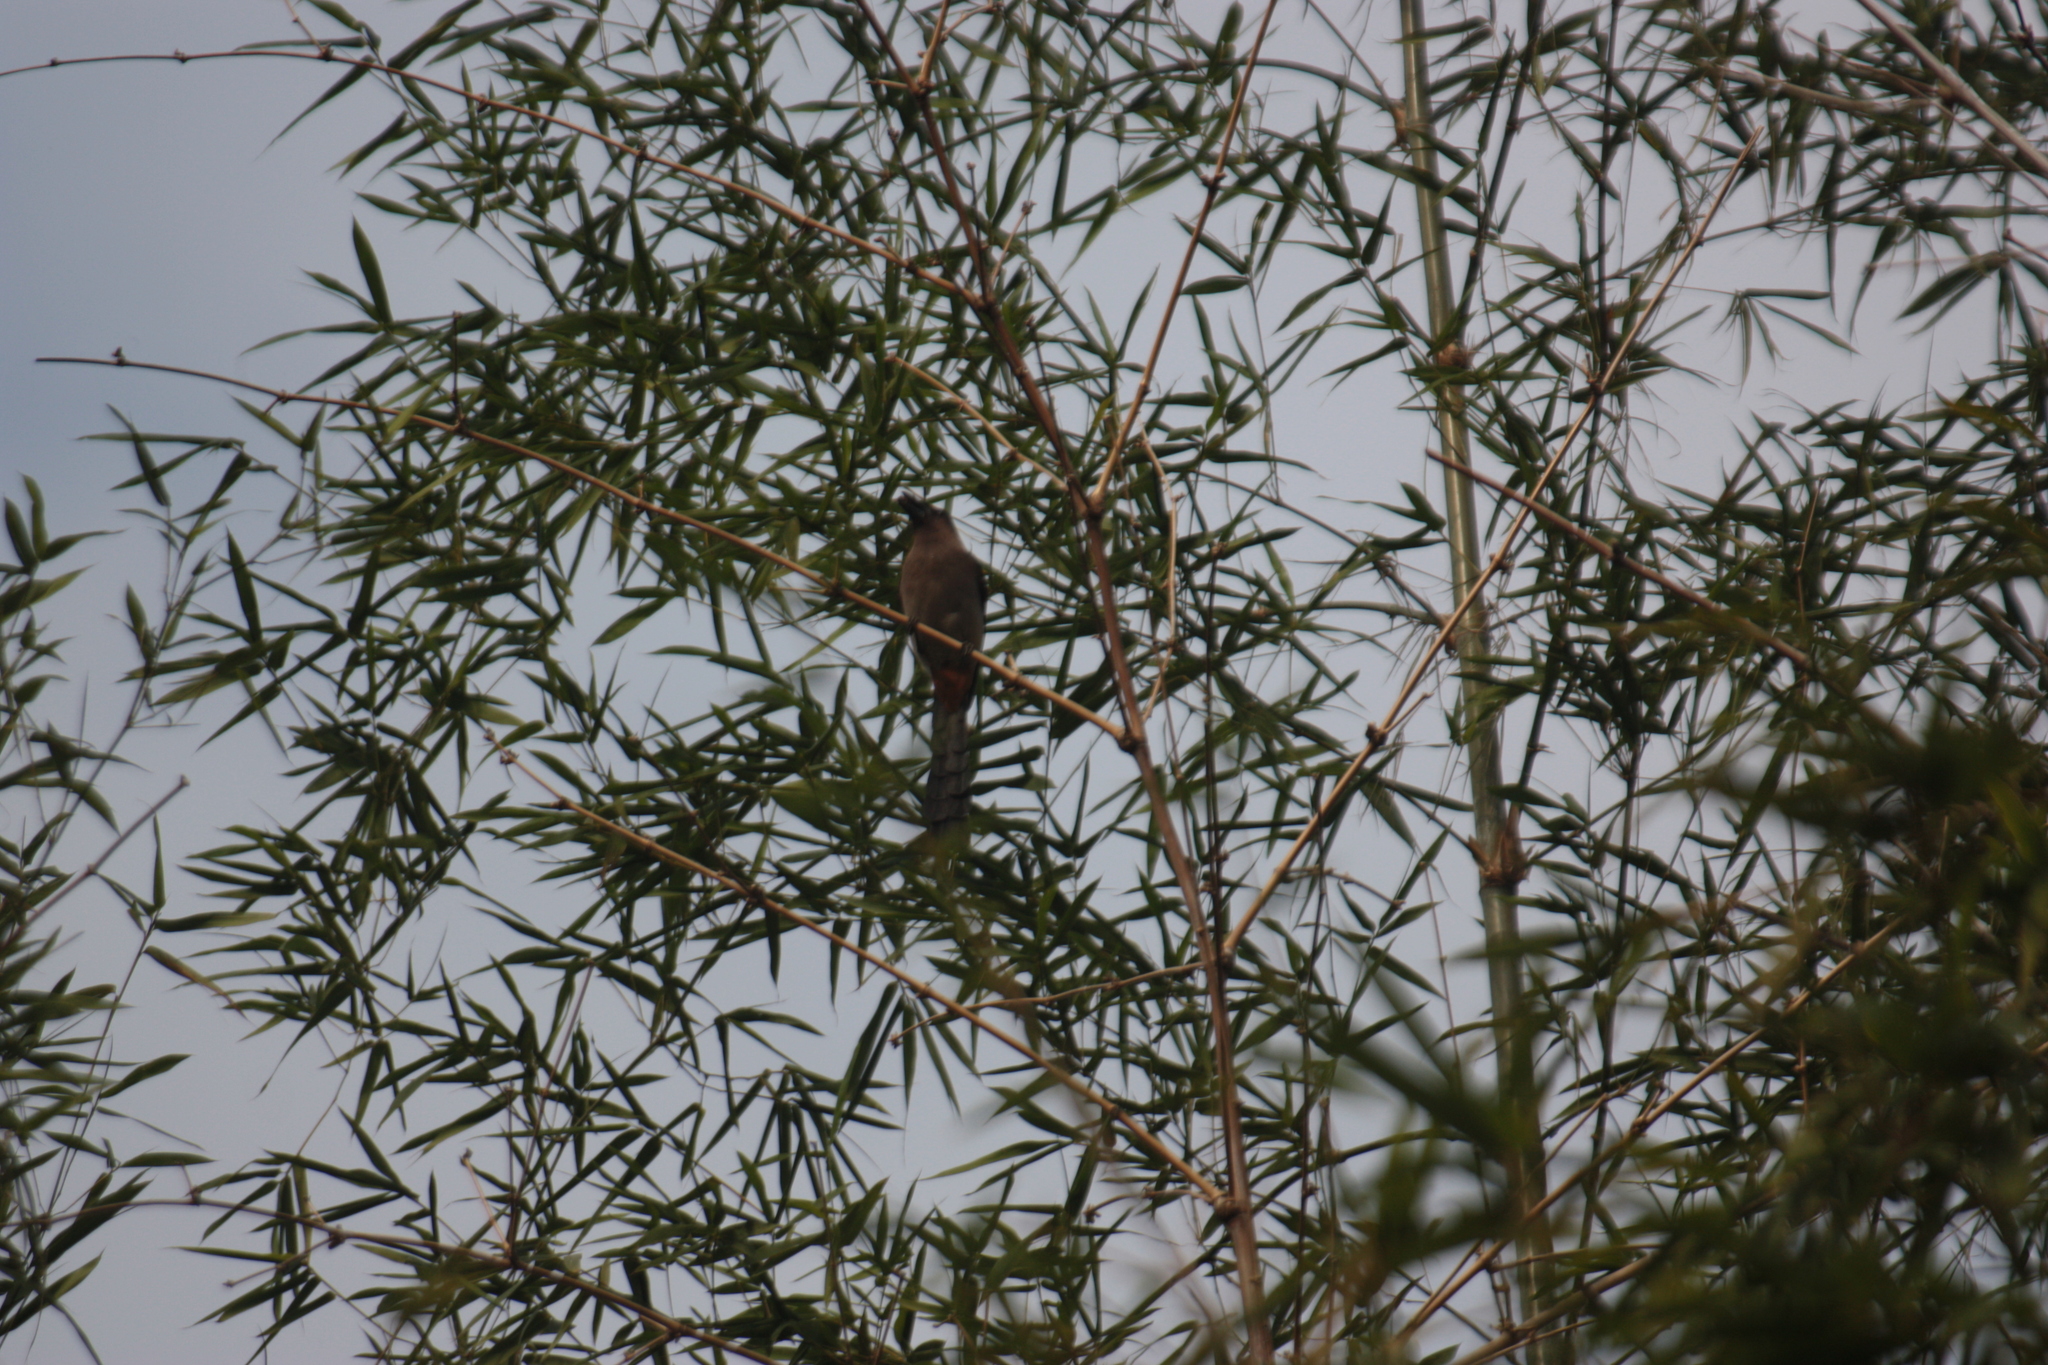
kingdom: Animalia
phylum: Chordata
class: Aves
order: Passeriformes
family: Corvidae
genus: Dendrocitta
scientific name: Dendrocitta formosae
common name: Grey treepie
